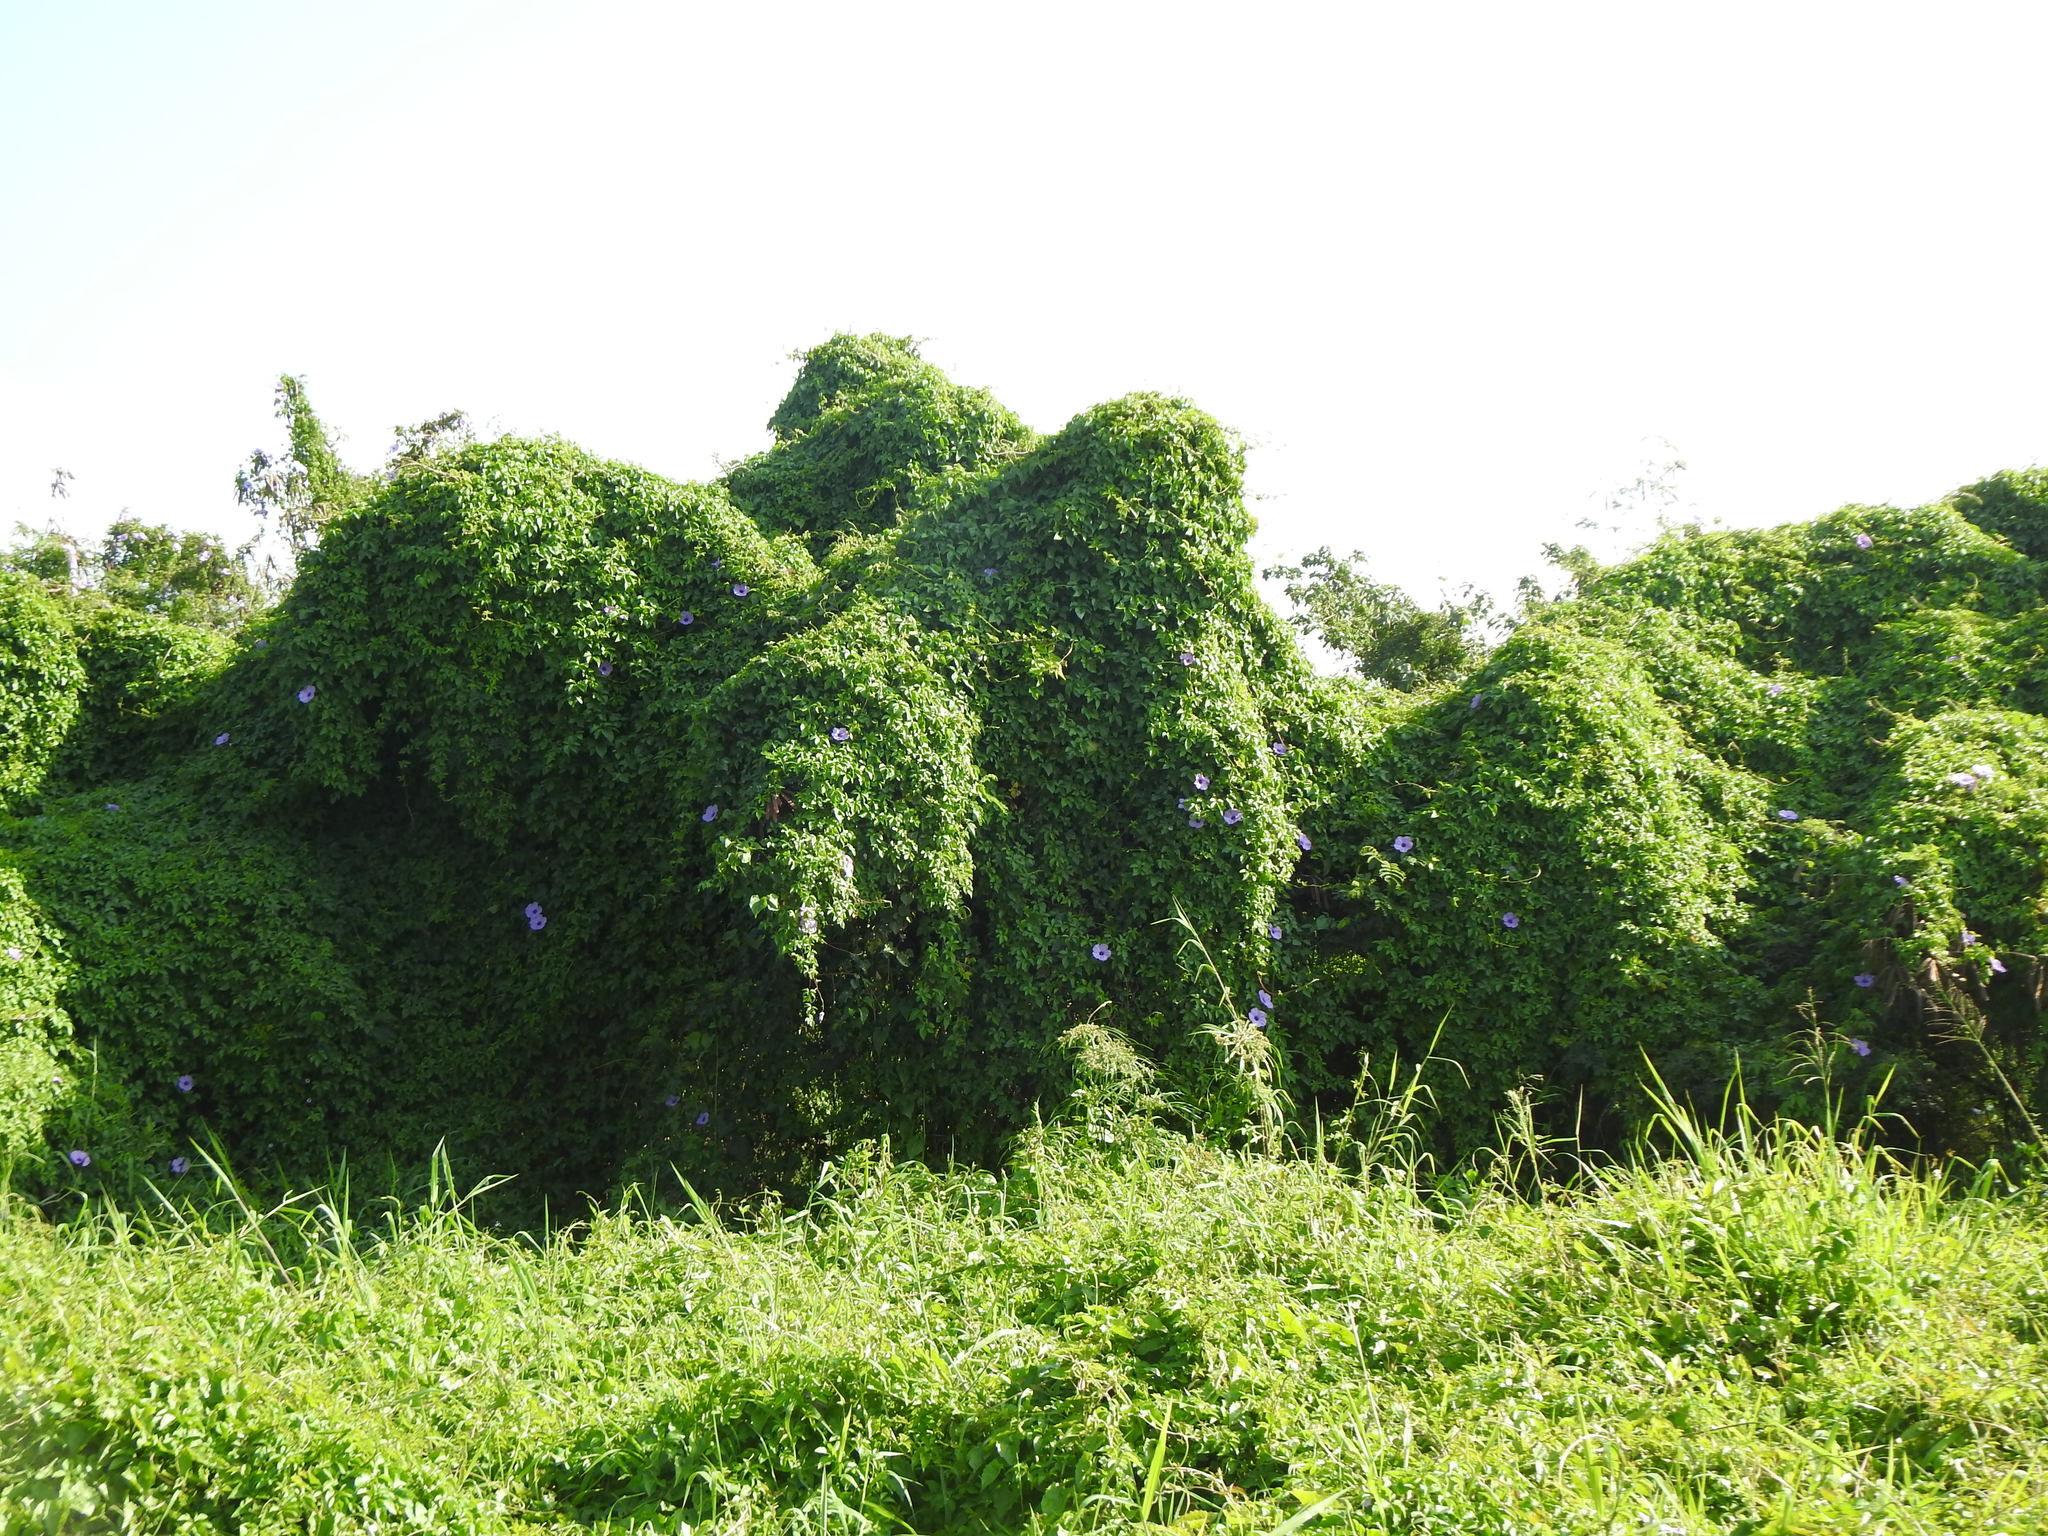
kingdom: Plantae
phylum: Tracheophyta
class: Magnoliopsida
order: Solanales
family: Convolvulaceae
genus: Ipomoea
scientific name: Ipomoea cairica
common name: Mile a minute vine
